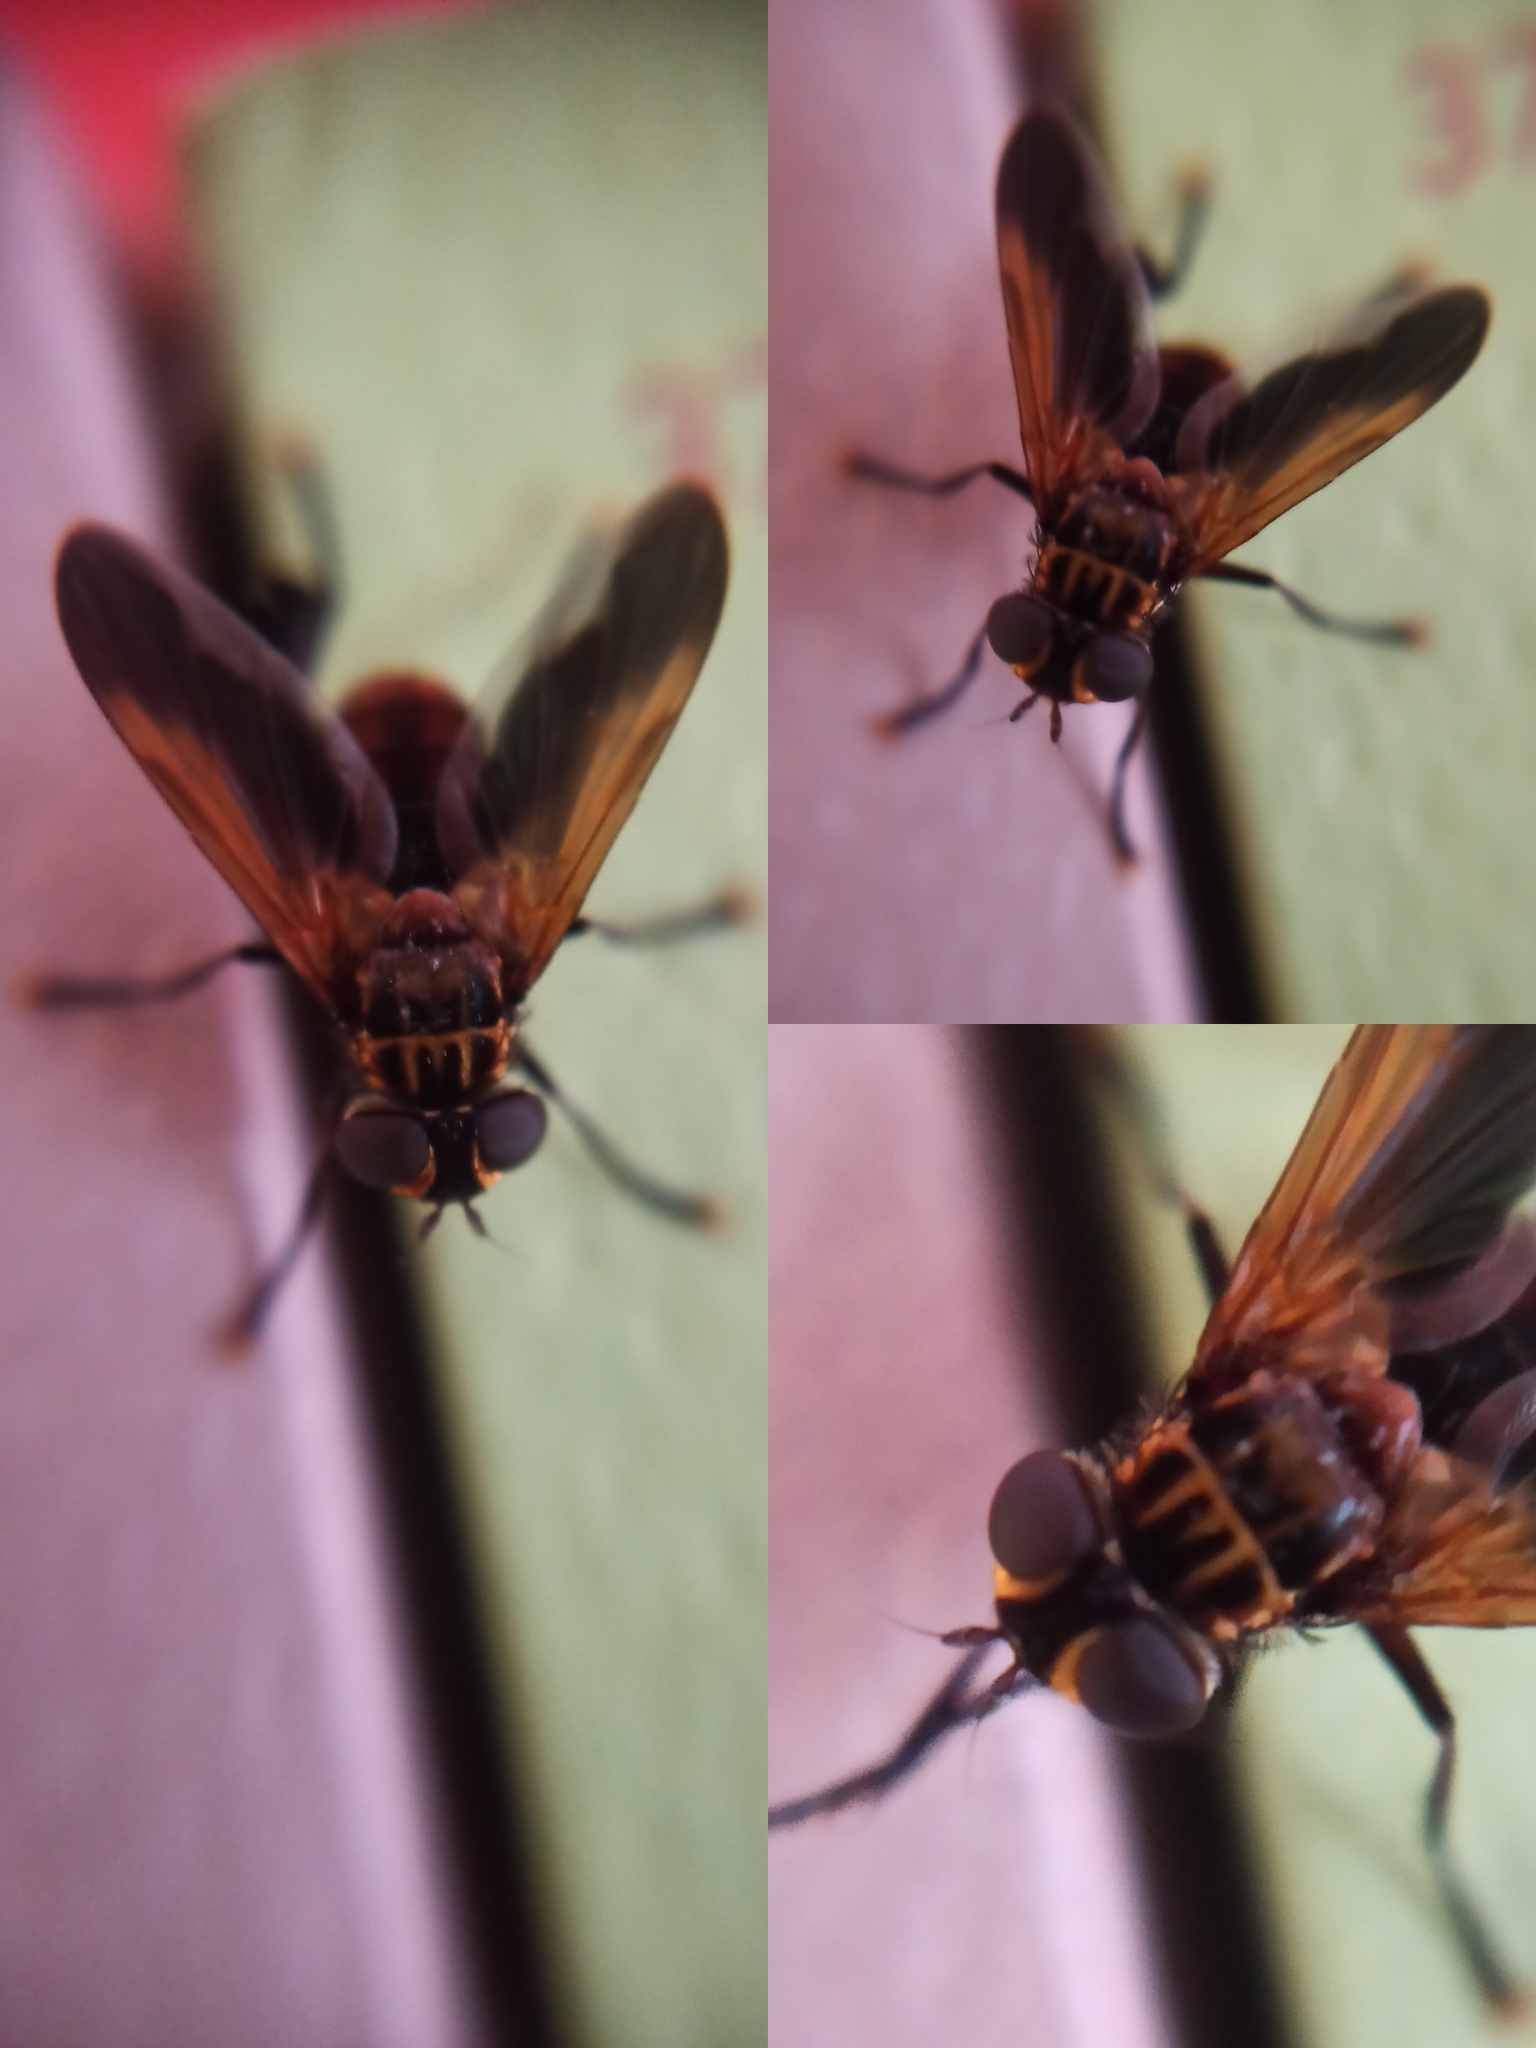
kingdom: Animalia
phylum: Arthropoda
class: Insecta
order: Diptera
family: Tachinidae
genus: Trichopoda
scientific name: Trichopoda pictipennis
